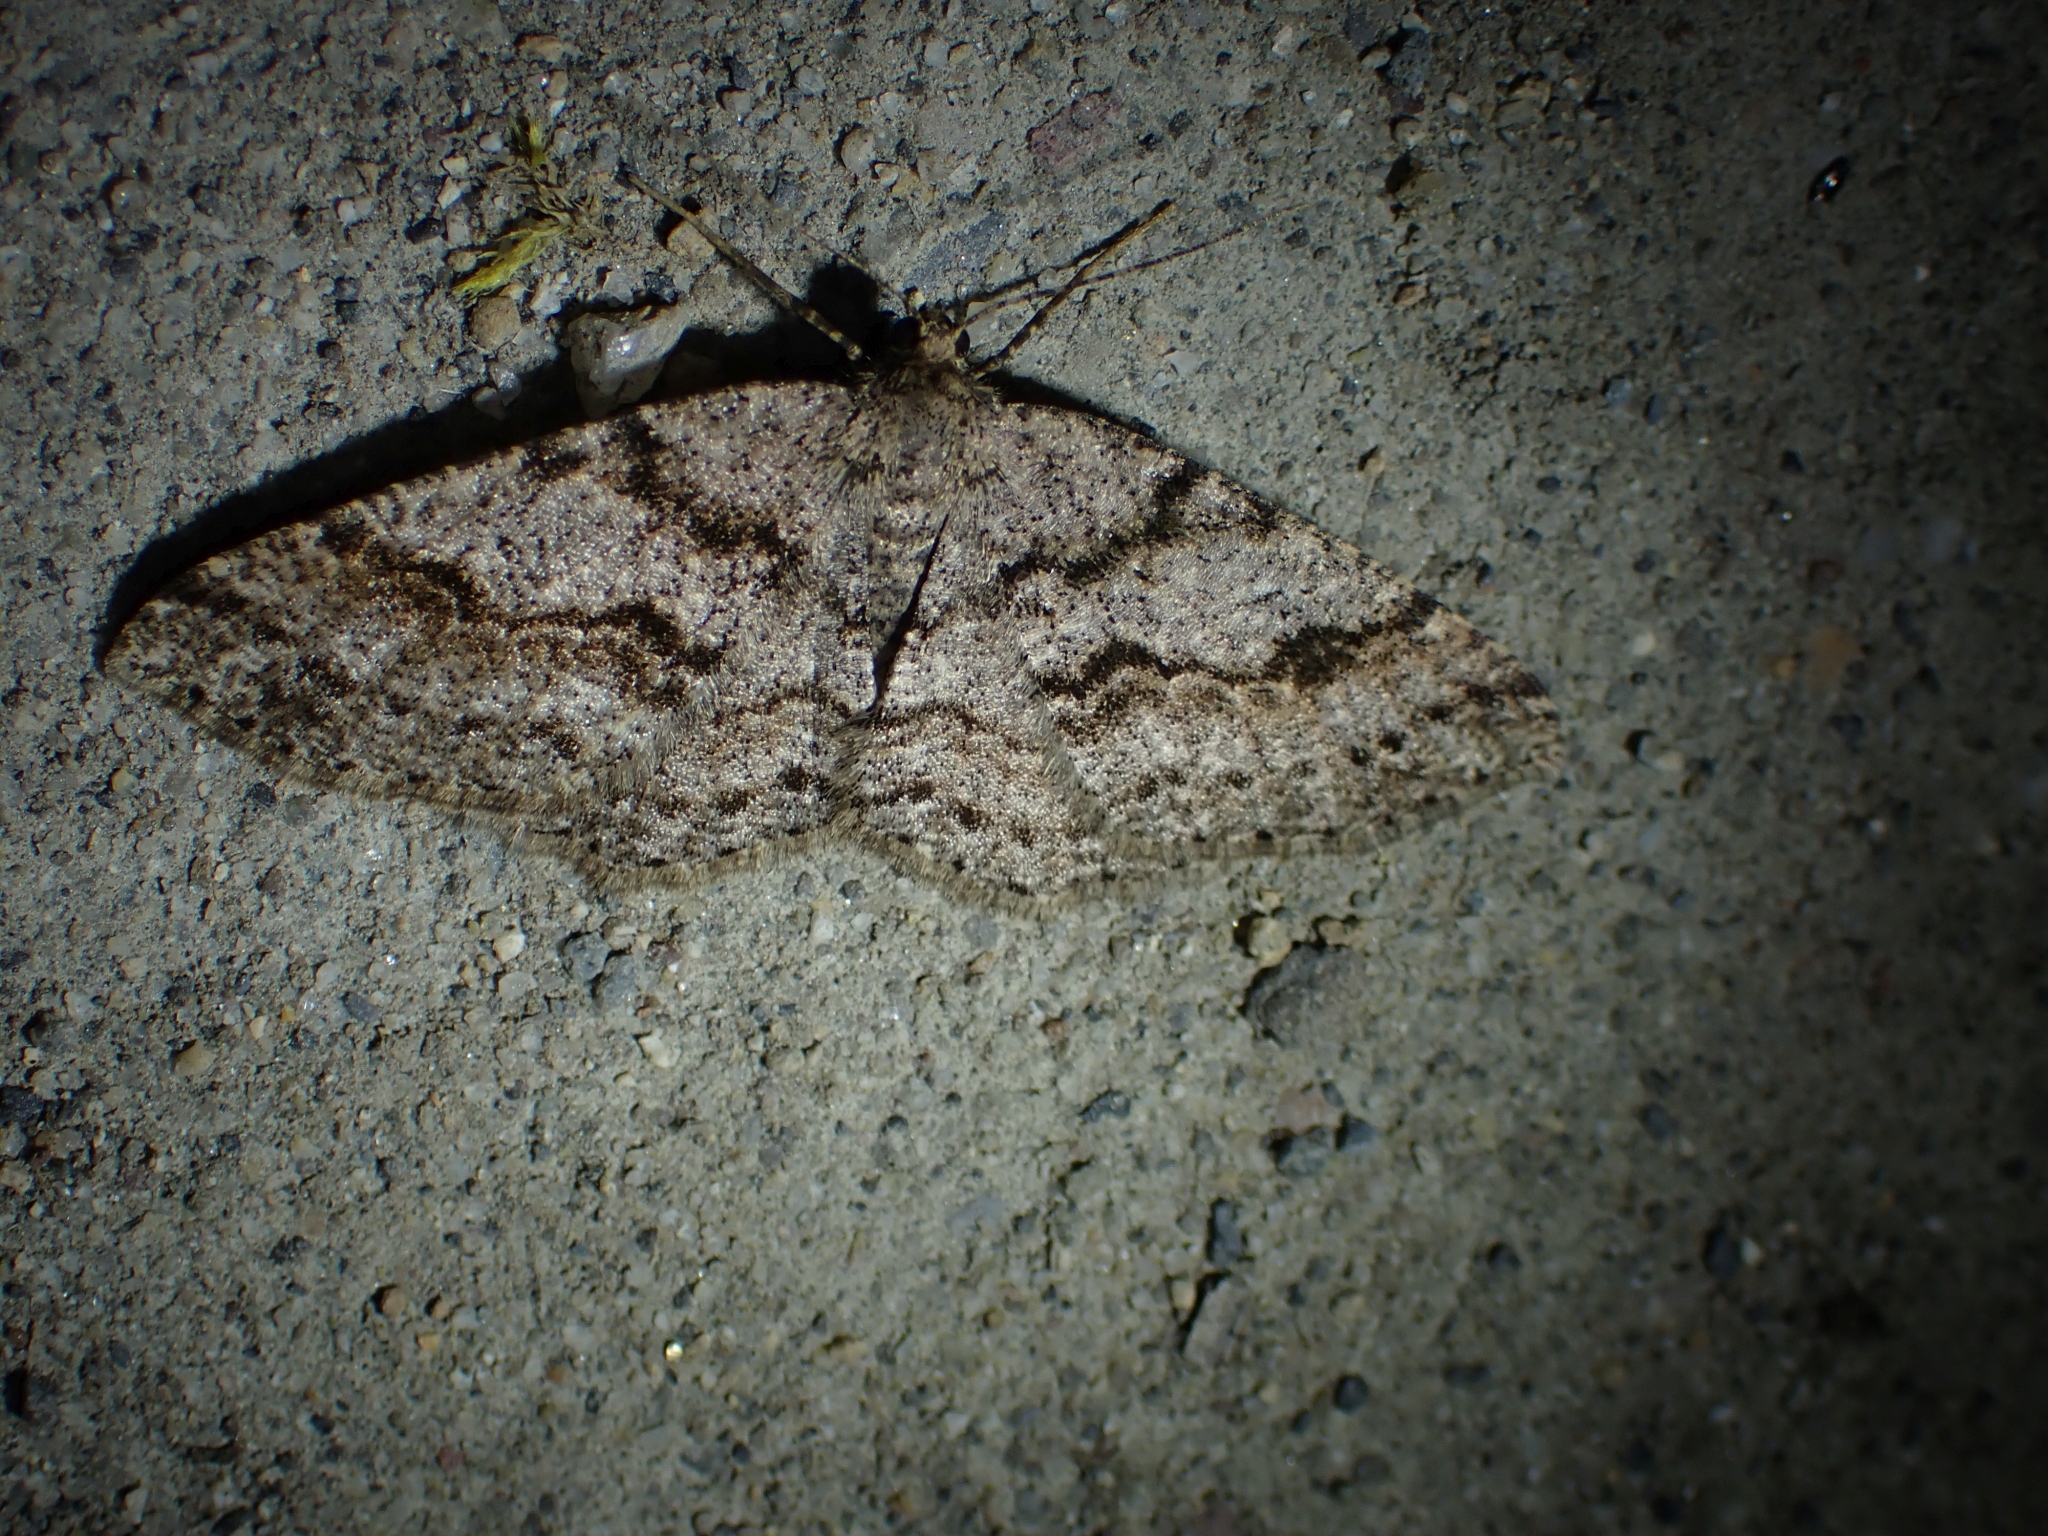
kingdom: Animalia
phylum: Arthropoda
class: Insecta
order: Lepidoptera
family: Geometridae
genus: Melanolophia
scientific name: Melanolophia imitata
